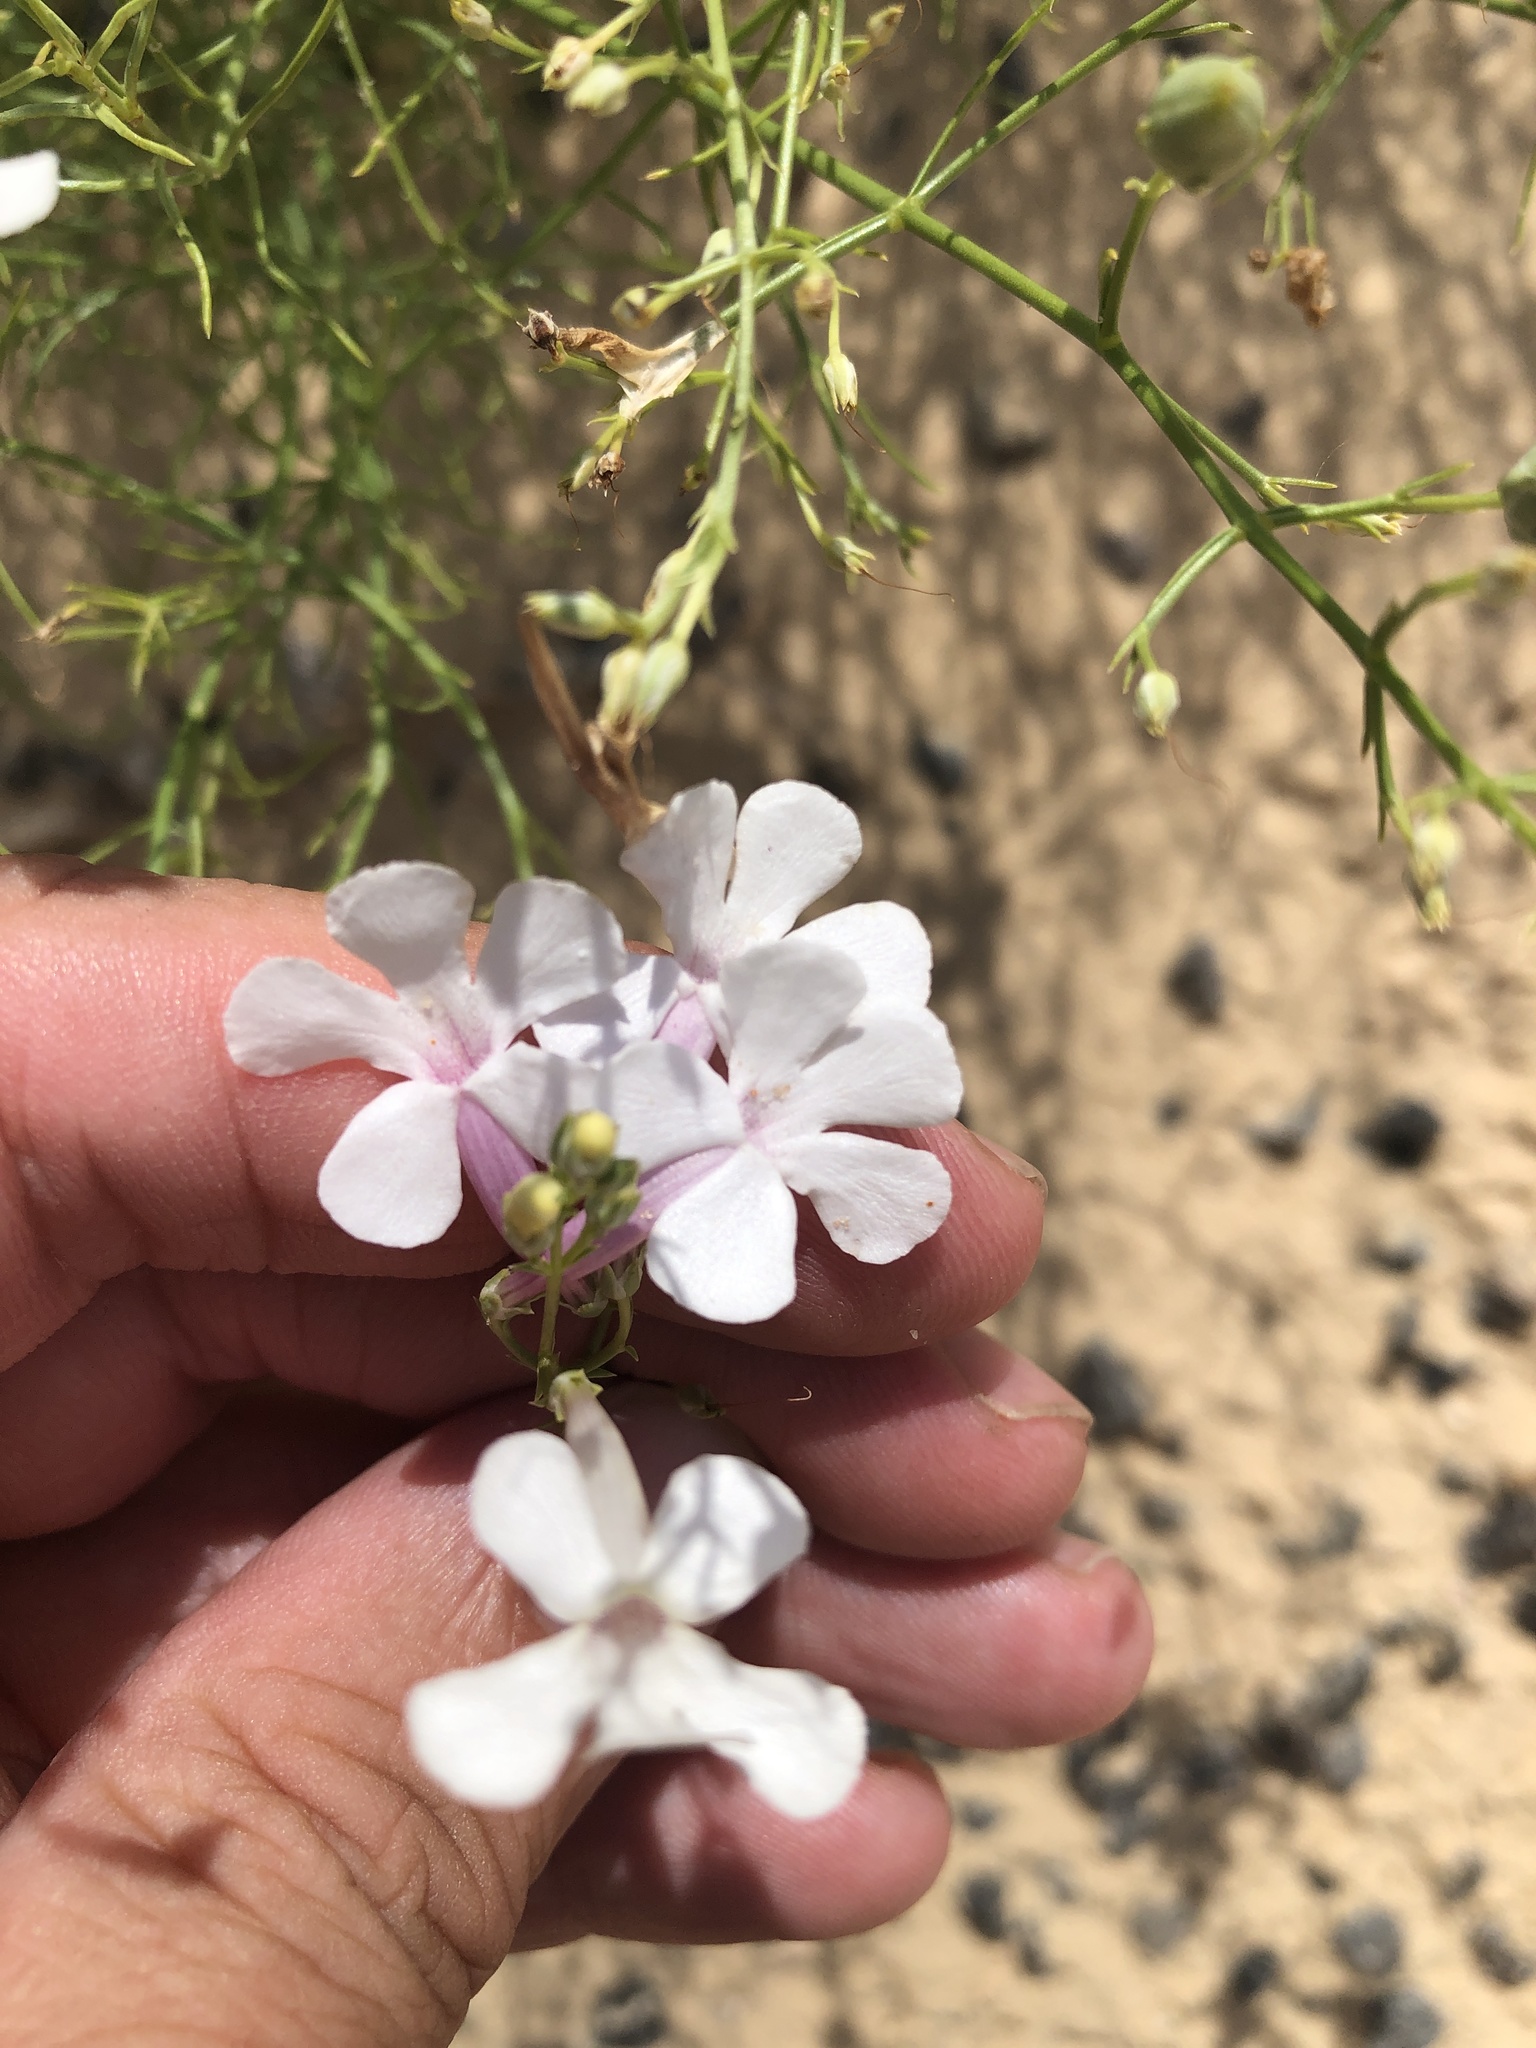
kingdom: Plantae
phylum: Tracheophyta
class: Magnoliopsida
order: Lamiales
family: Plantaginaceae
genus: Penstemon
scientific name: Penstemon ambiguus
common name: Bush penstemon
